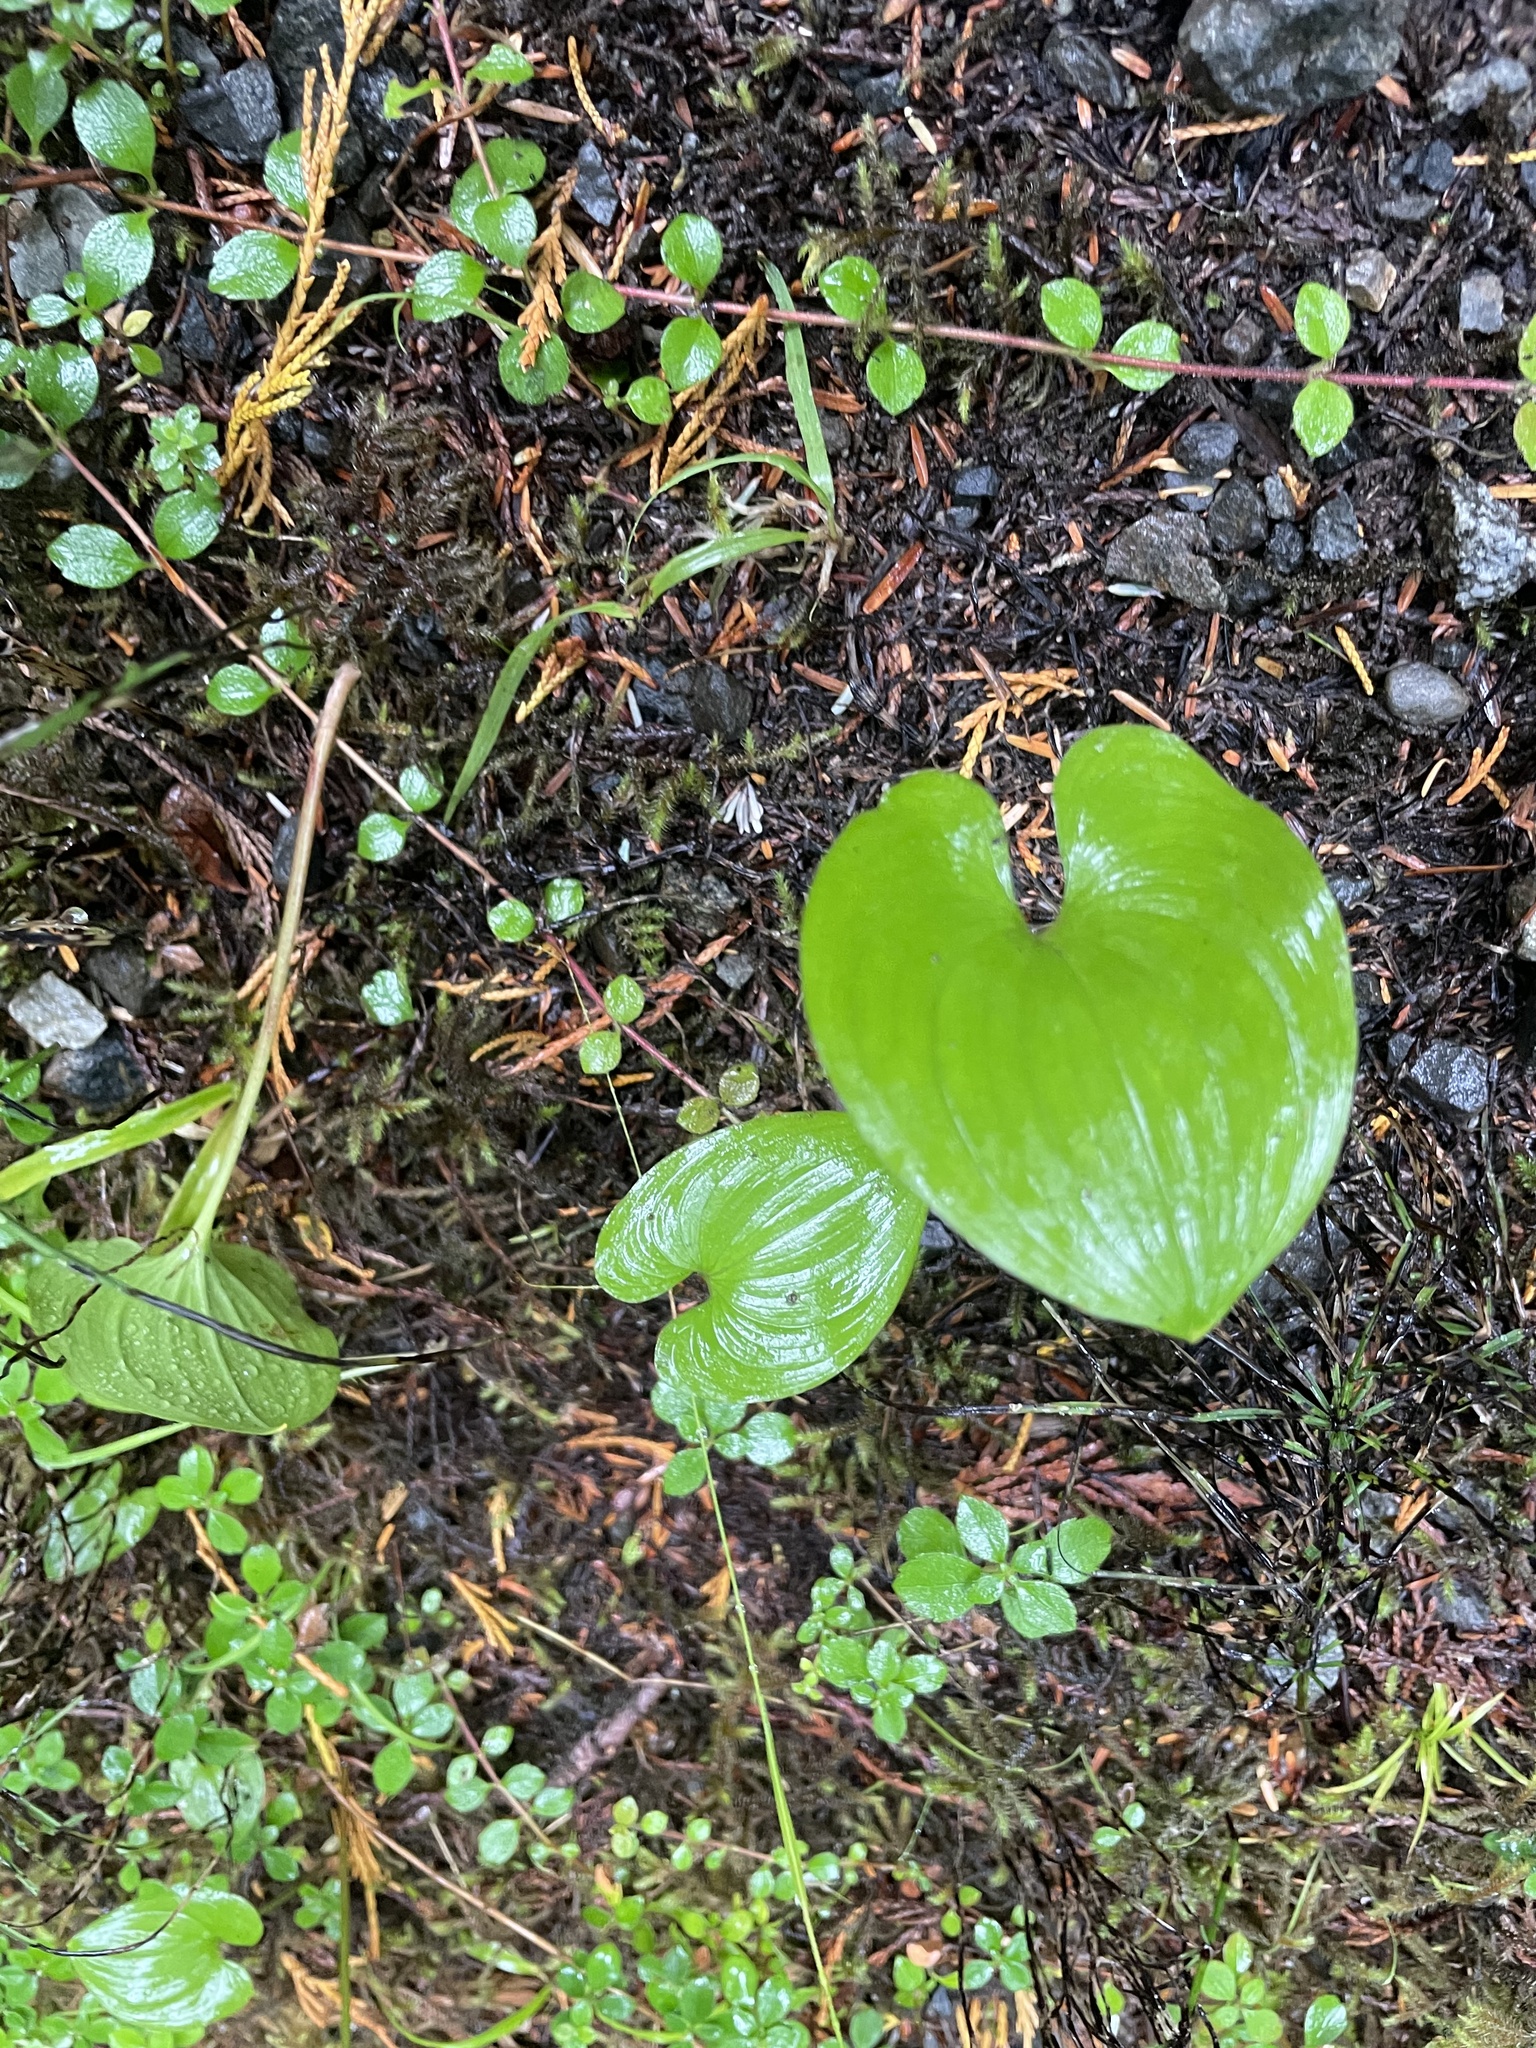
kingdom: Plantae
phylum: Tracheophyta
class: Liliopsida
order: Asparagales
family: Asparagaceae
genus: Maianthemum
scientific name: Maianthemum dilatatum
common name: False lily-of-the-valley
